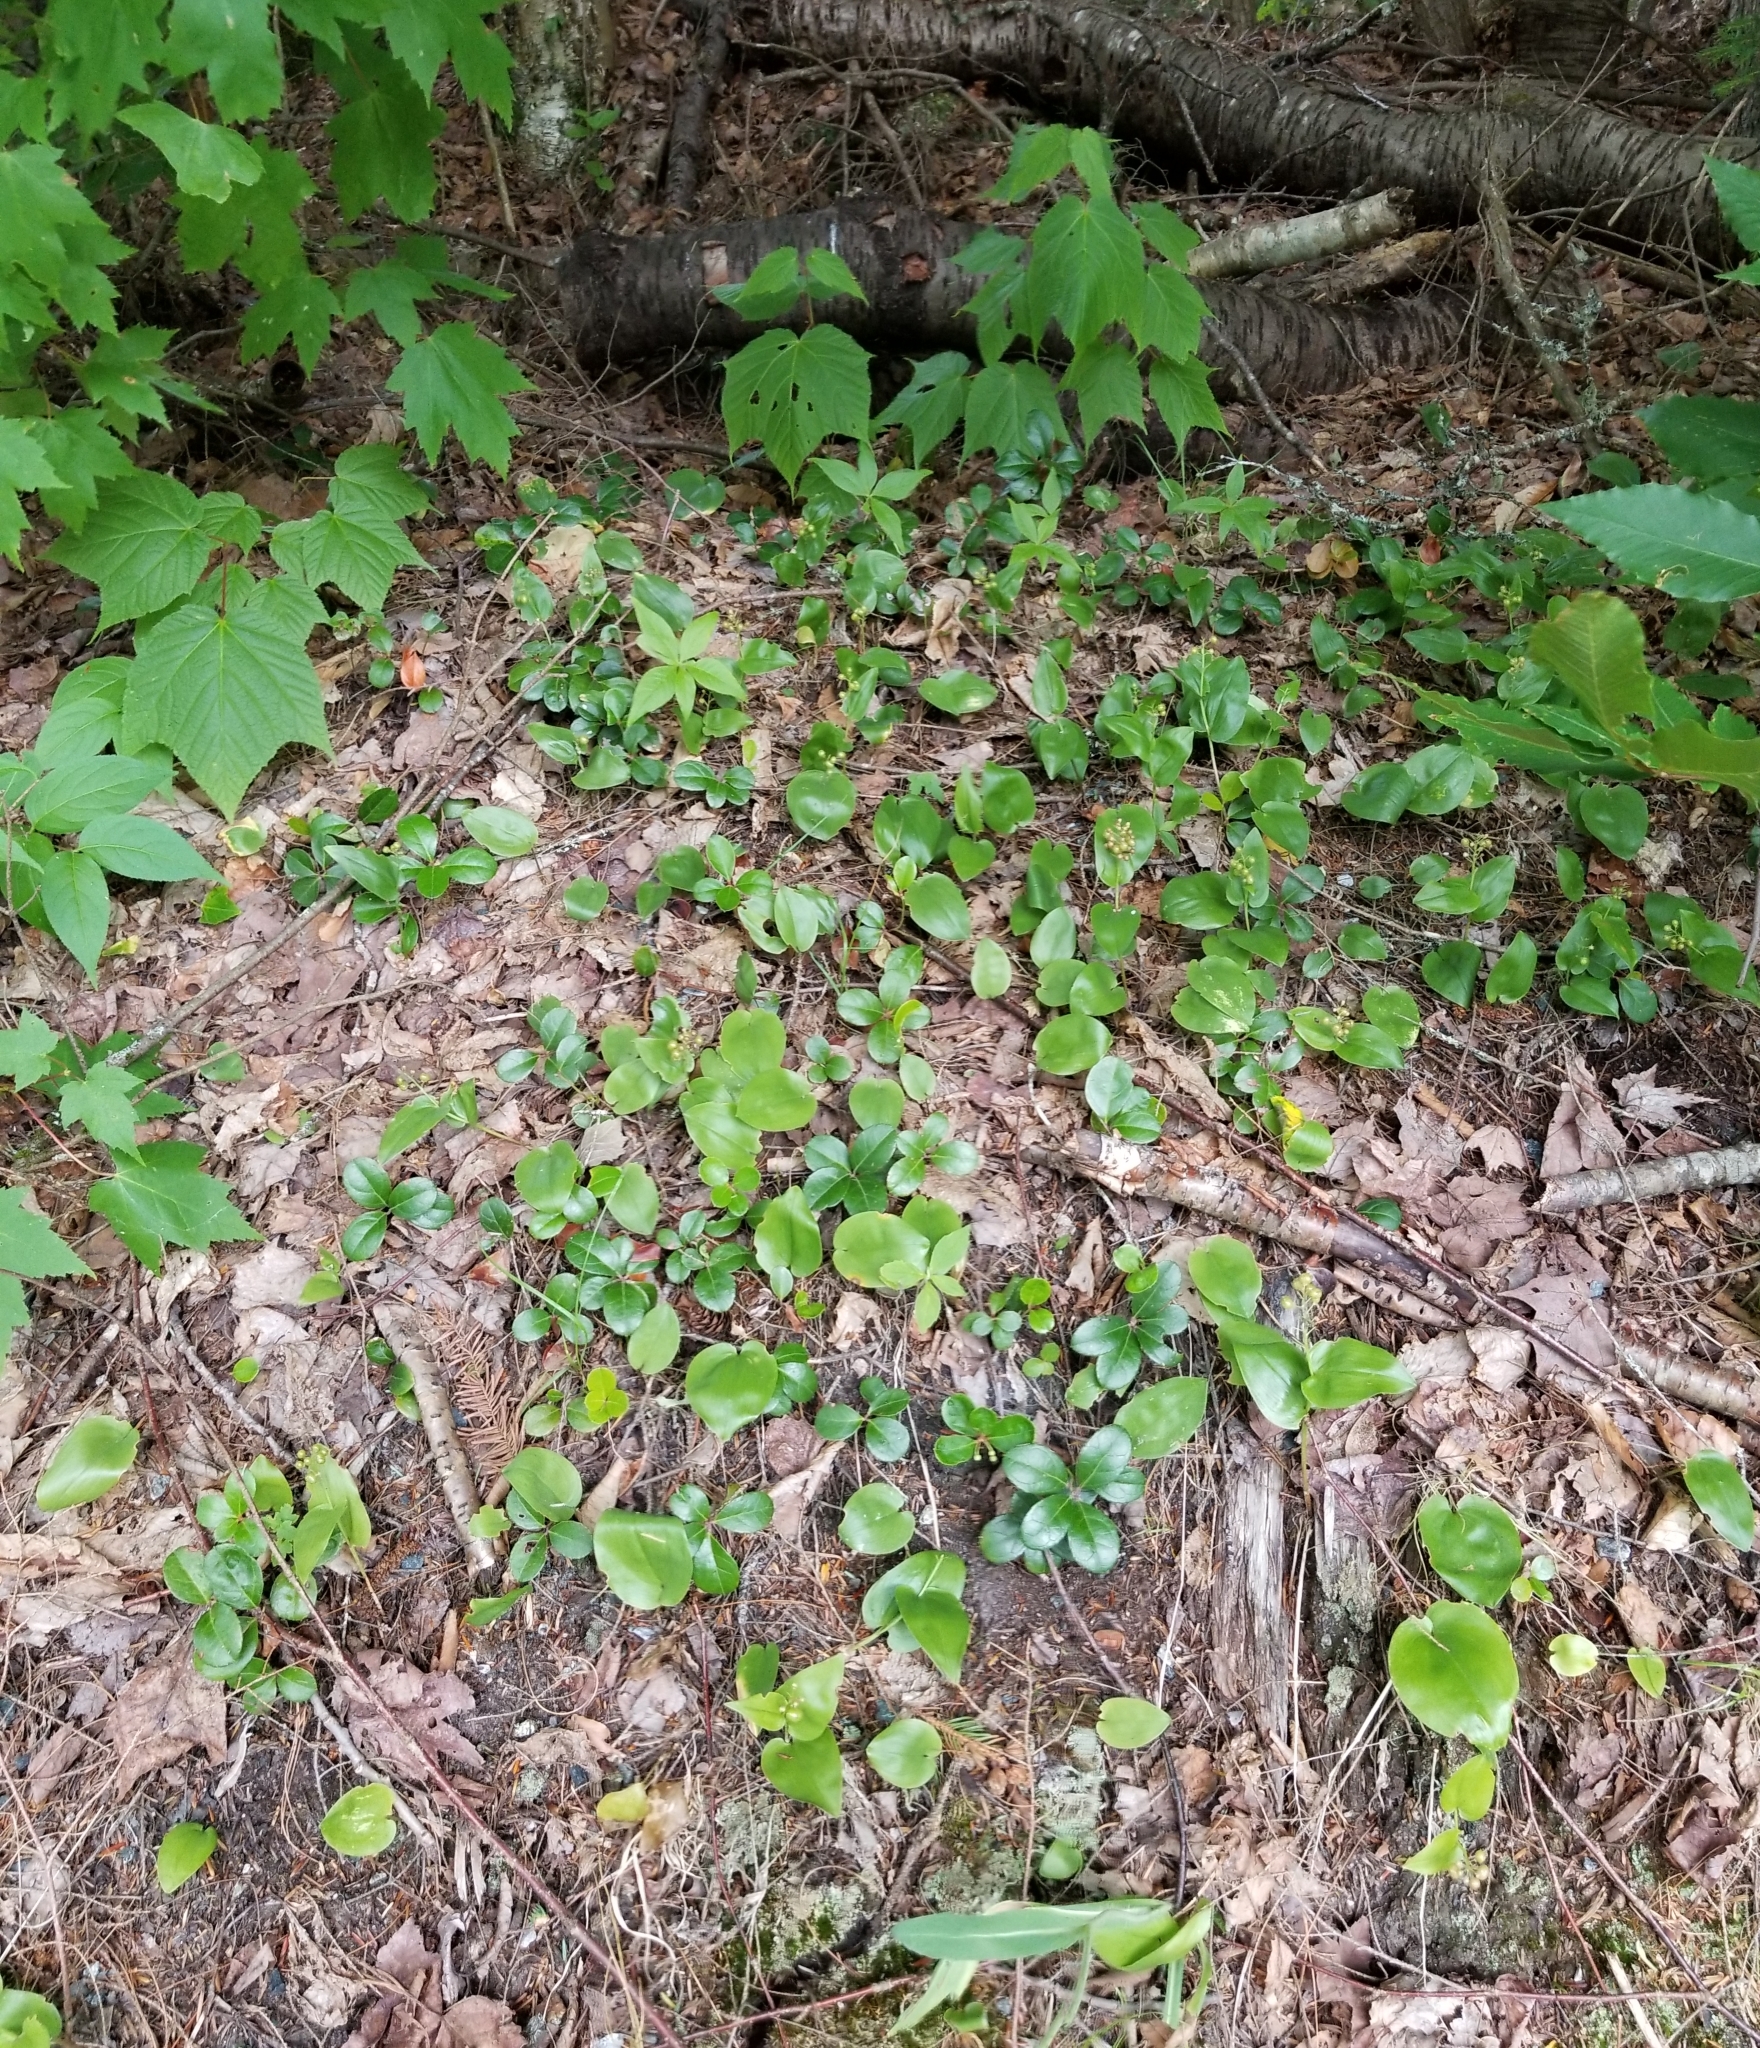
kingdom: Plantae
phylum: Tracheophyta
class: Liliopsida
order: Asparagales
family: Asparagaceae
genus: Maianthemum
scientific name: Maianthemum canadense
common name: False lily-of-the-valley
